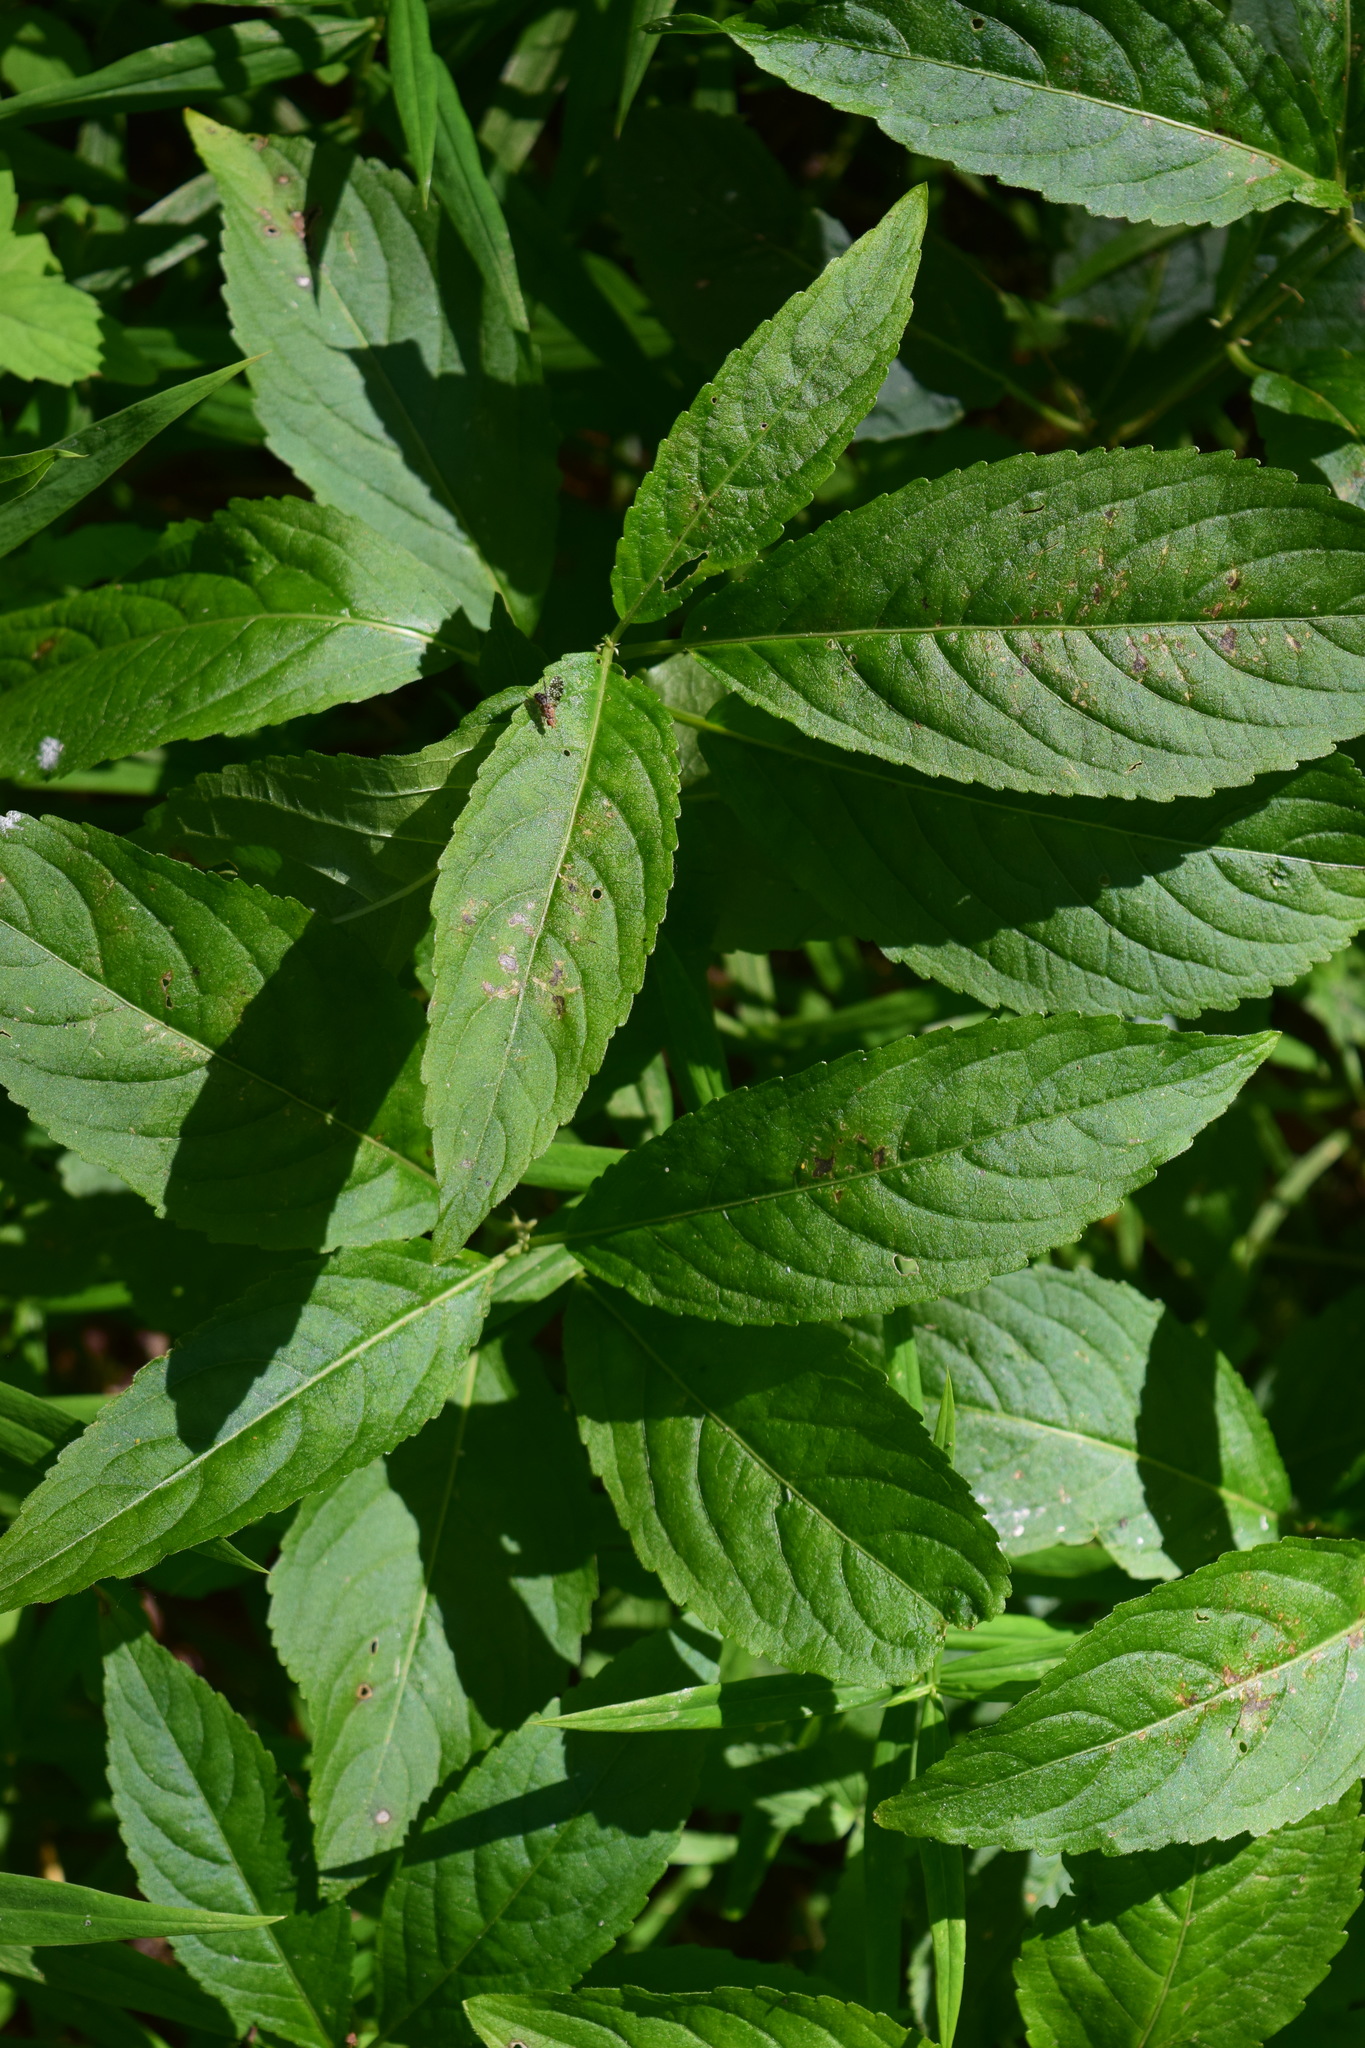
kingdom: Plantae
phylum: Tracheophyta
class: Magnoliopsida
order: Malpighiales
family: Euphorbiaceae
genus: Mercurialis
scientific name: Mercurialis perennis
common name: Dog mercury
